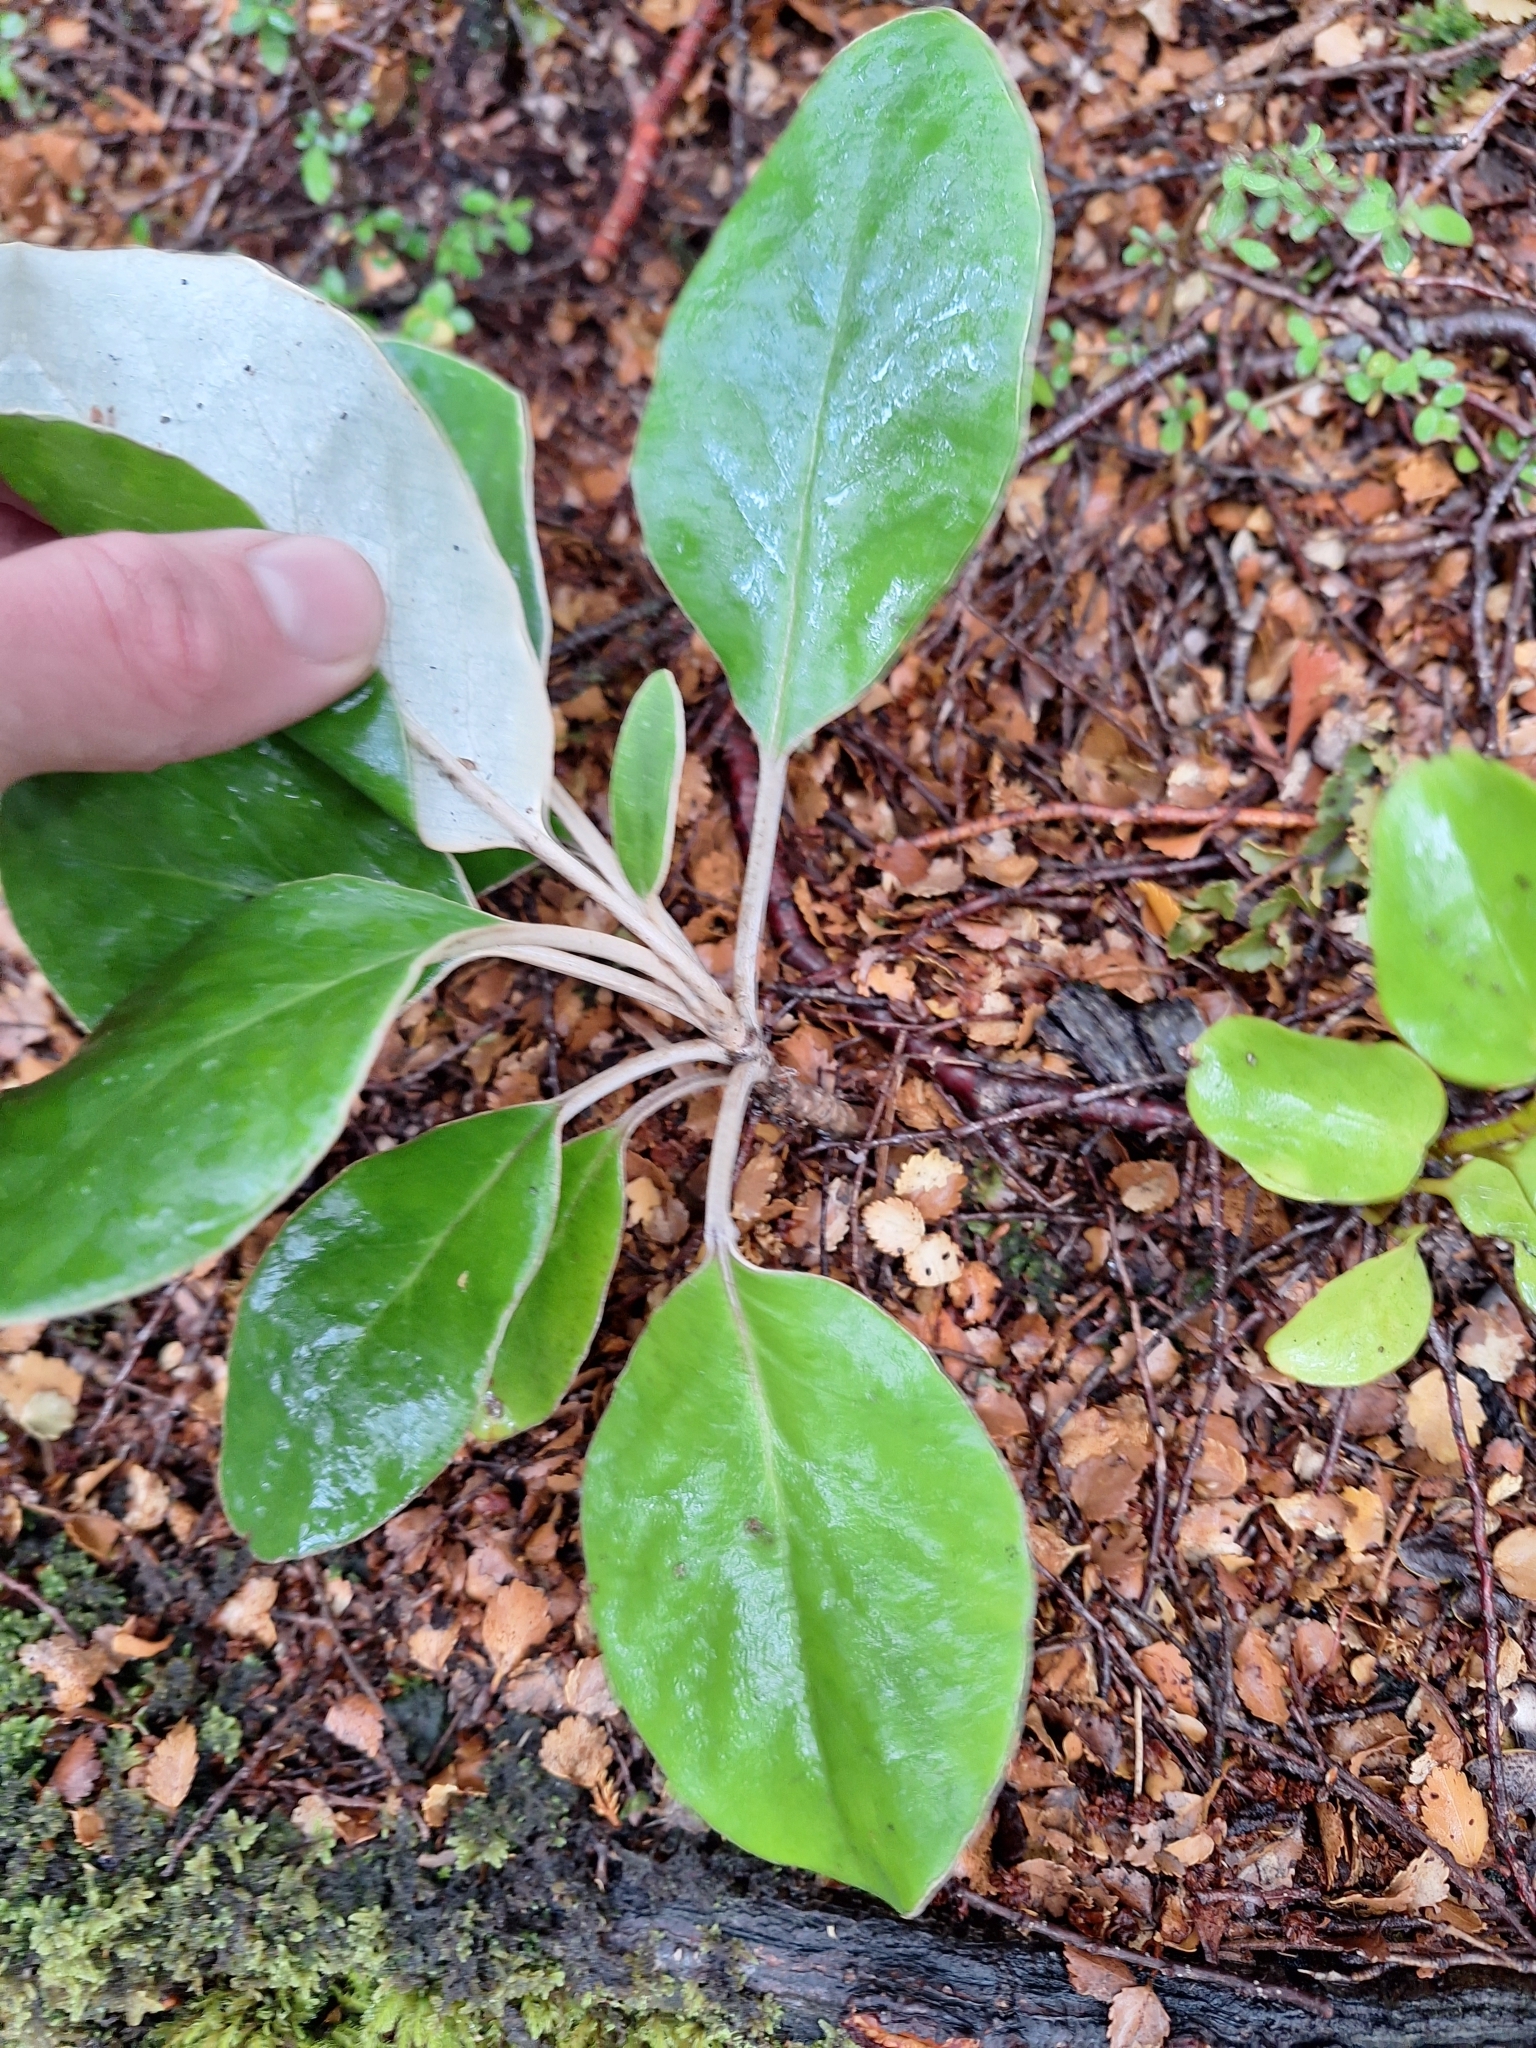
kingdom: Plantae
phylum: Tracheophyta
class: Magnoliopsida
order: Asterales
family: Asteraceae
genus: Brachyglottis
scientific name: Brachyglottis buchananii
